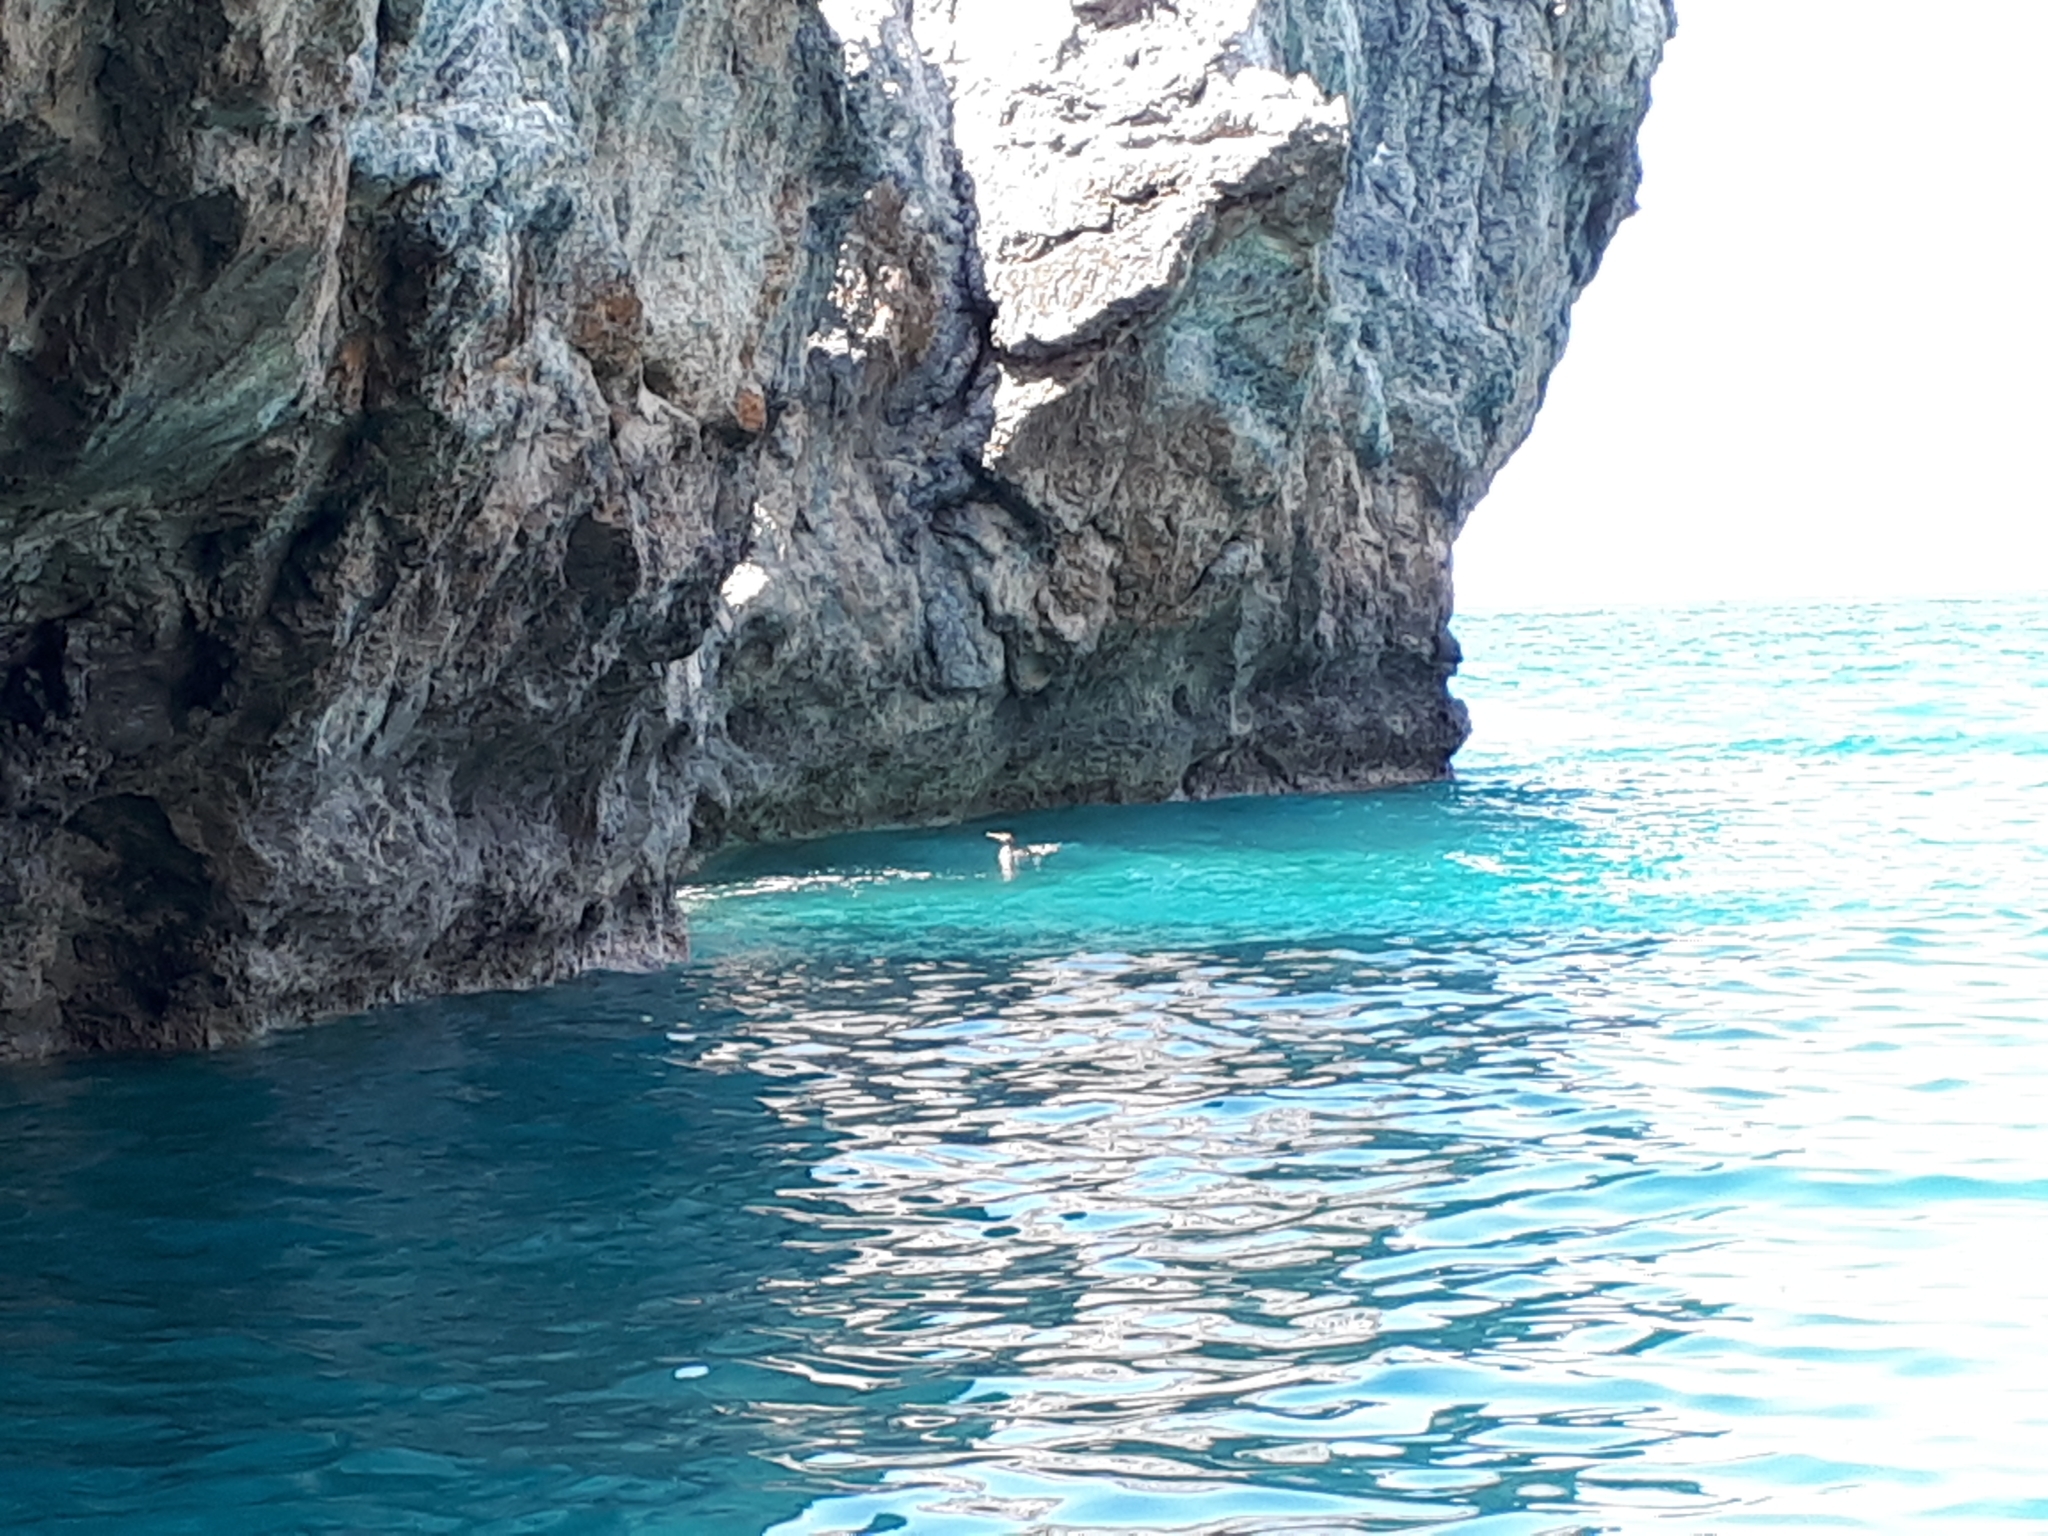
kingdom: Animalia
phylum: Chordata
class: Aves
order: Suliformes
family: Phalacrocoracidae
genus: Phalacrocorax
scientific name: Phalacrocorax aristotelis
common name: European shag
